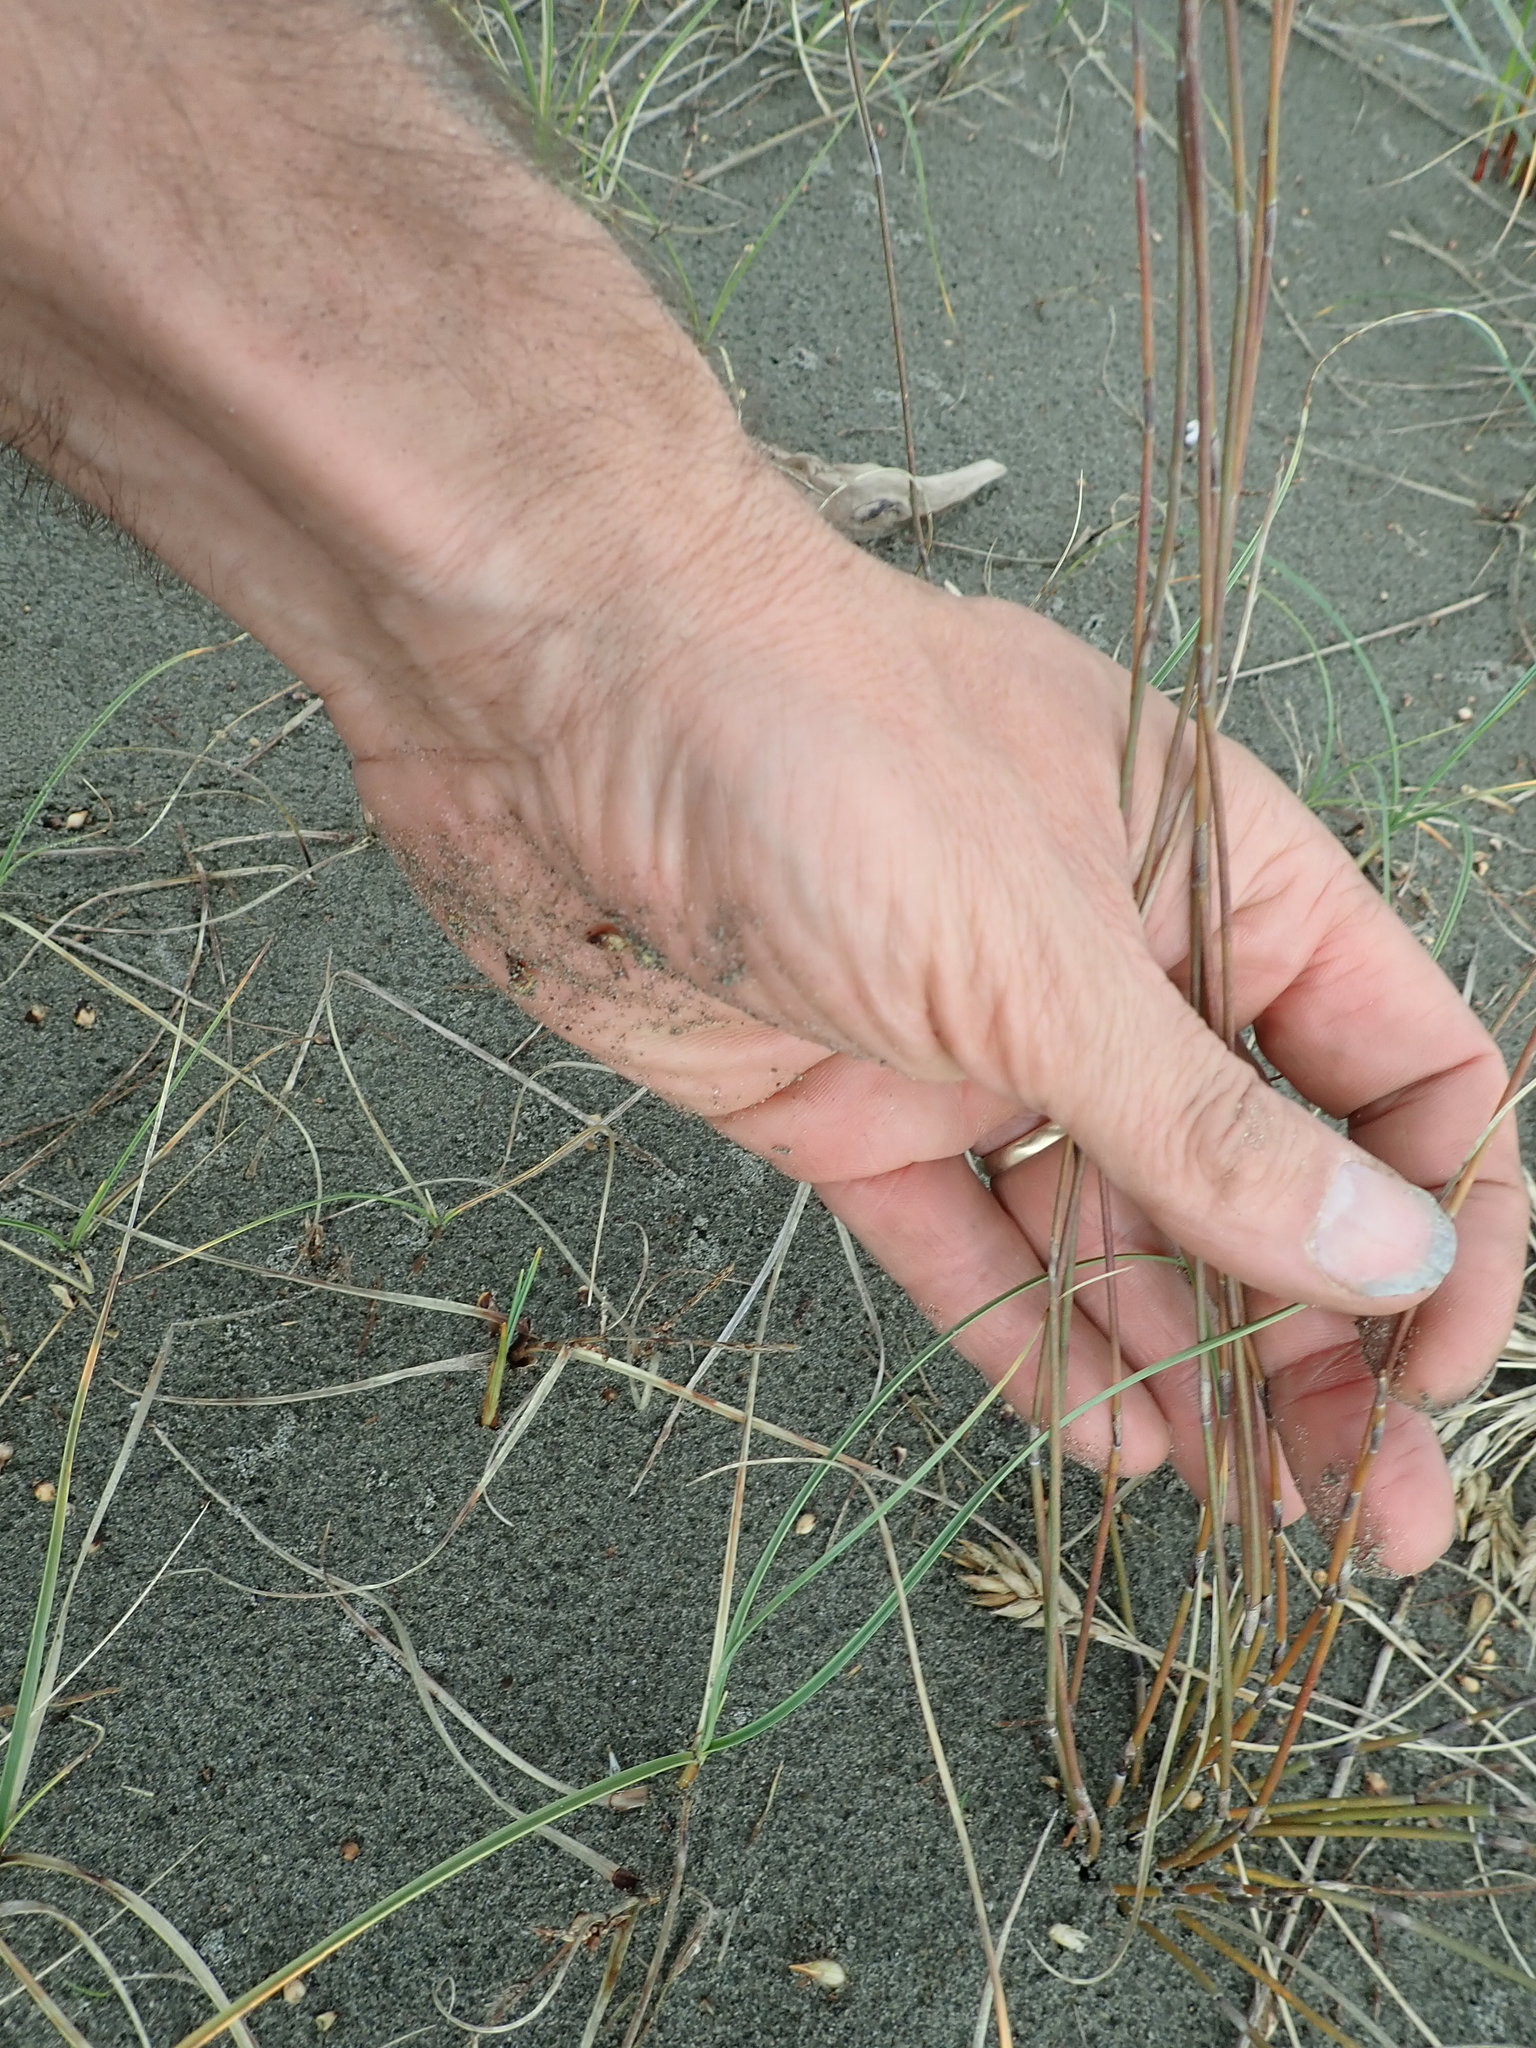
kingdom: Plantae
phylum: Tracheophyta
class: Liliopsida
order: Poales
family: Restionaceae
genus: Apodasmia
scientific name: Apodasmia similis
